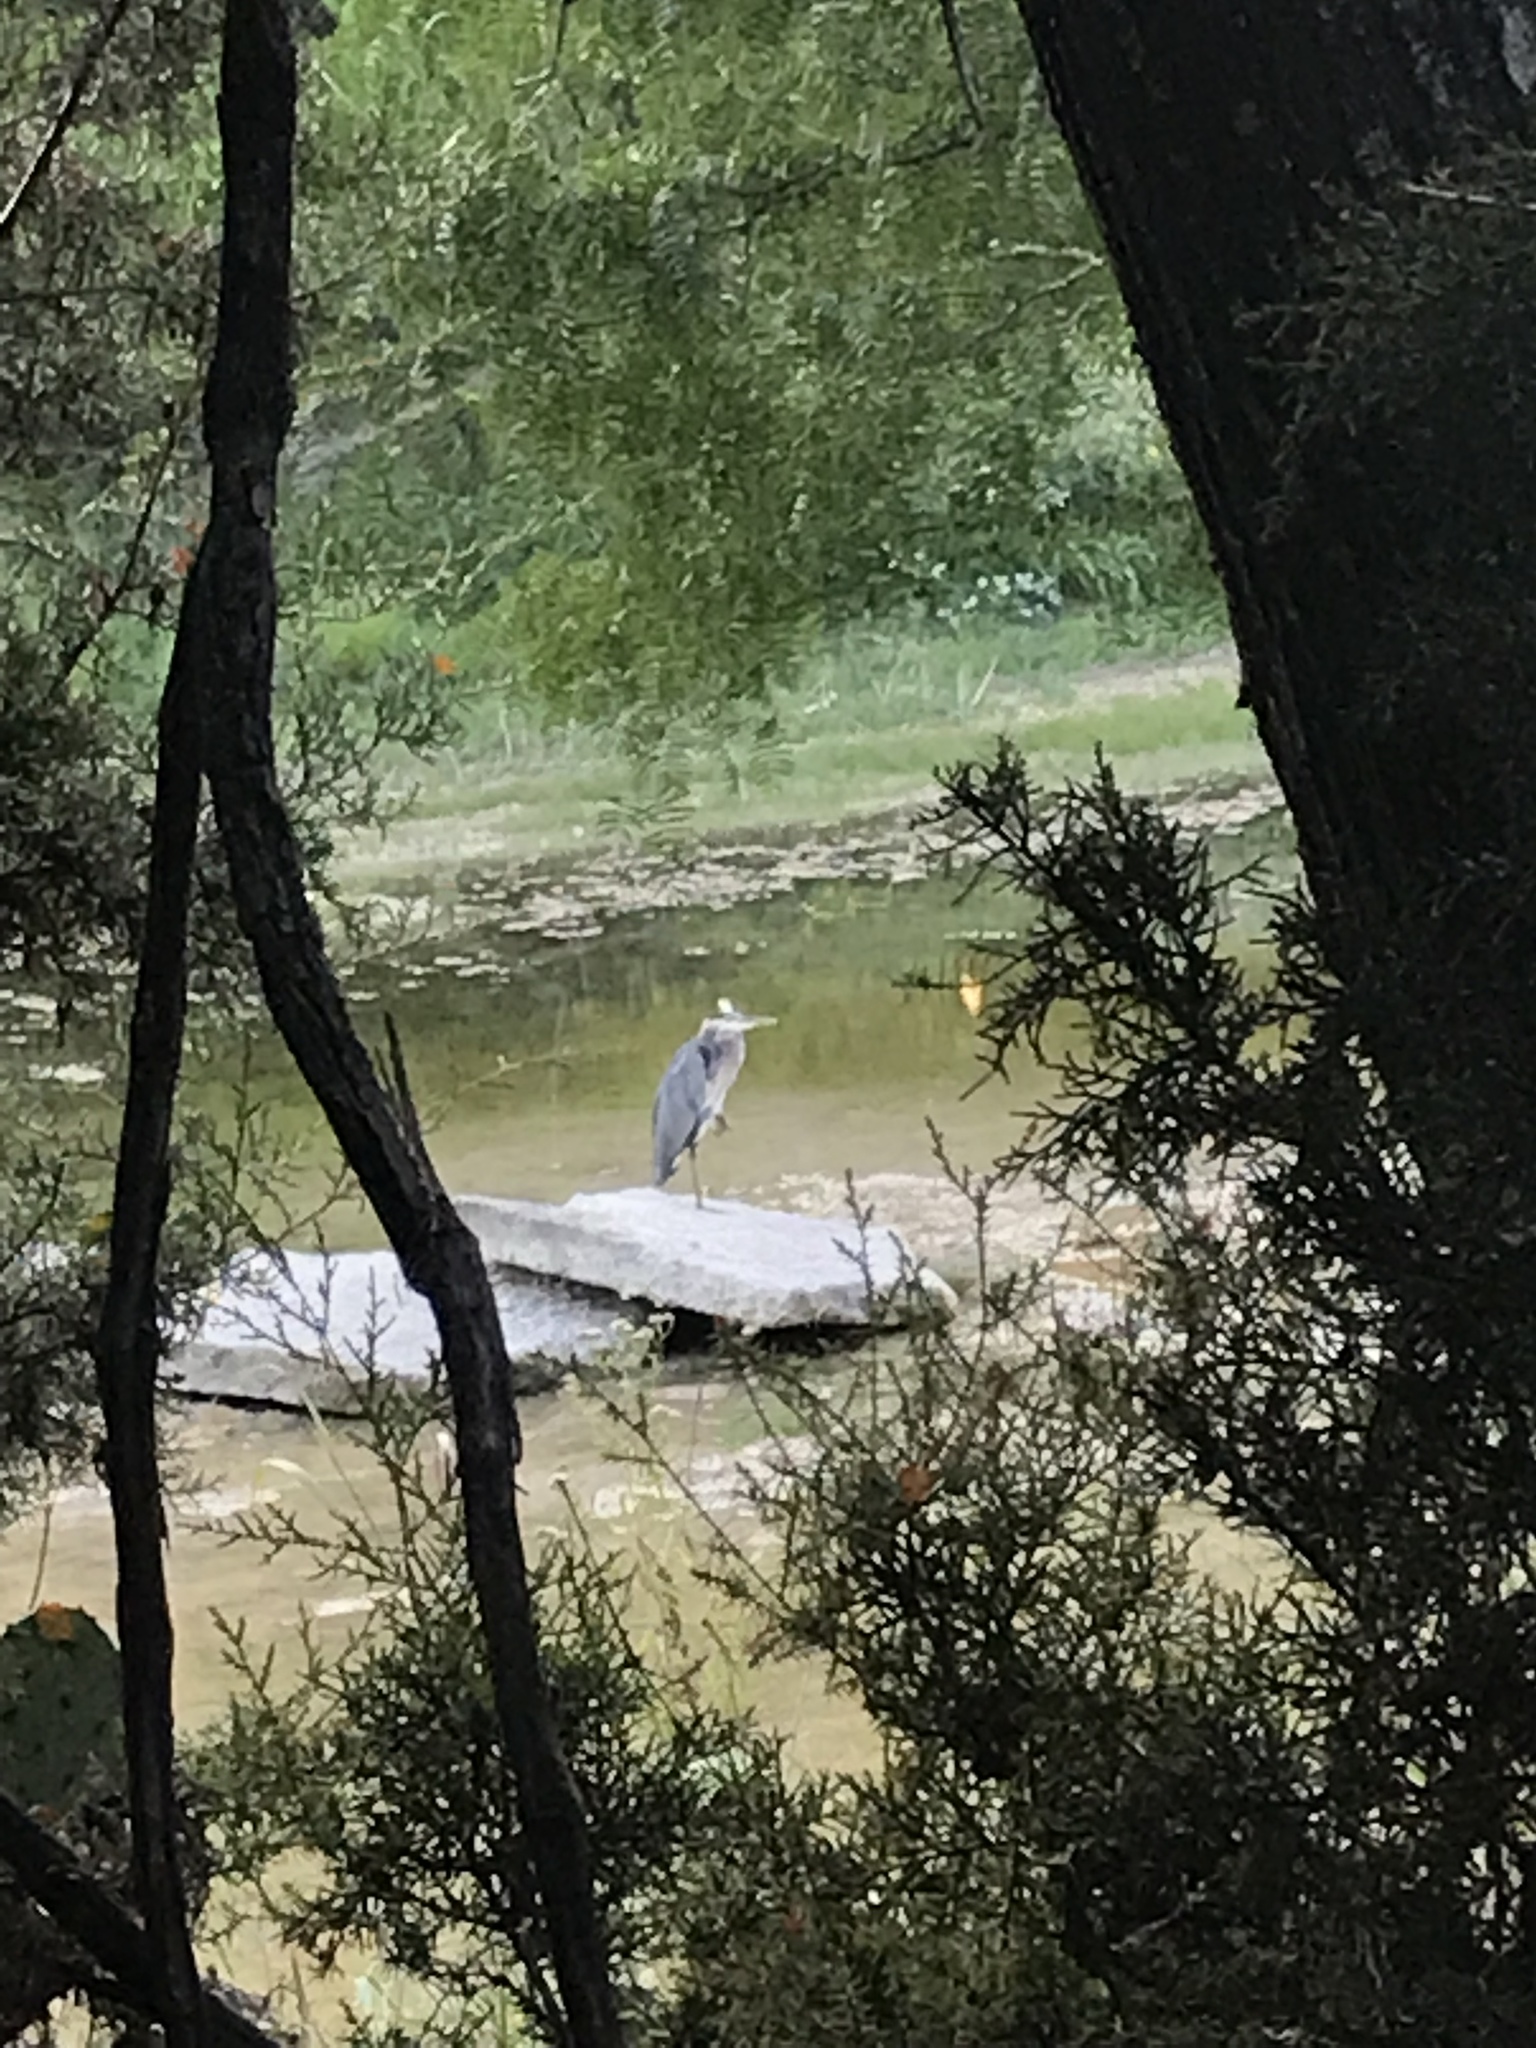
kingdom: Animalia
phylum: Chordata
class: Aves
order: Pelecaniformes
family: Ardeidae
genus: Ardea
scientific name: Ardea herodias
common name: Great blue heron
